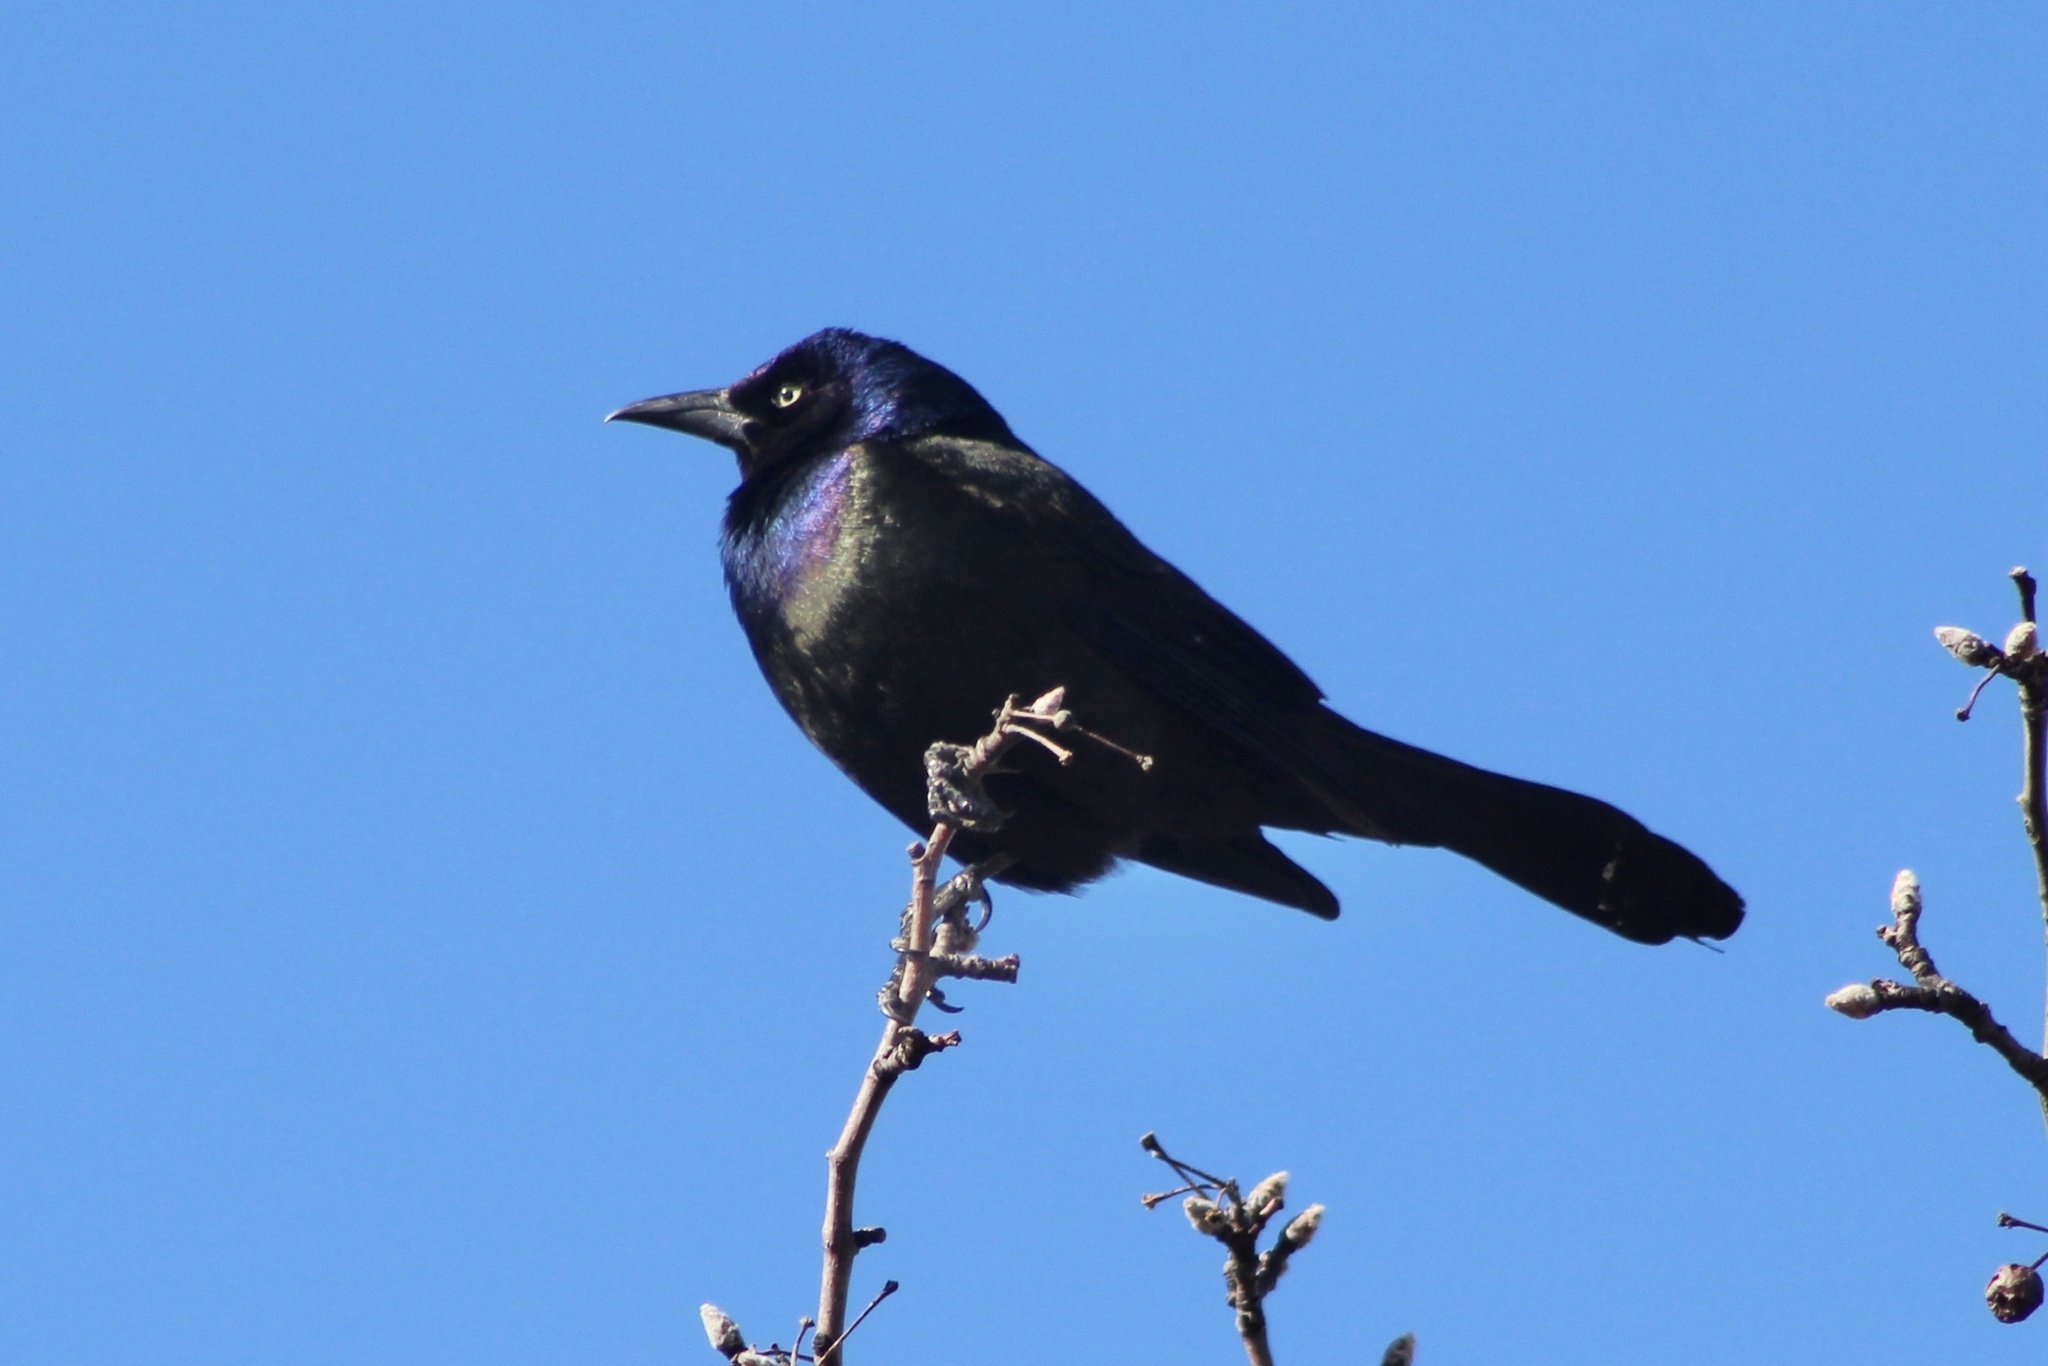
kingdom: Animalia
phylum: Chordata
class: Aves
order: Passeriformes
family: Icteridae
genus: Quiscalus
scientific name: Quiscalus quiscula
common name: Common grackle
